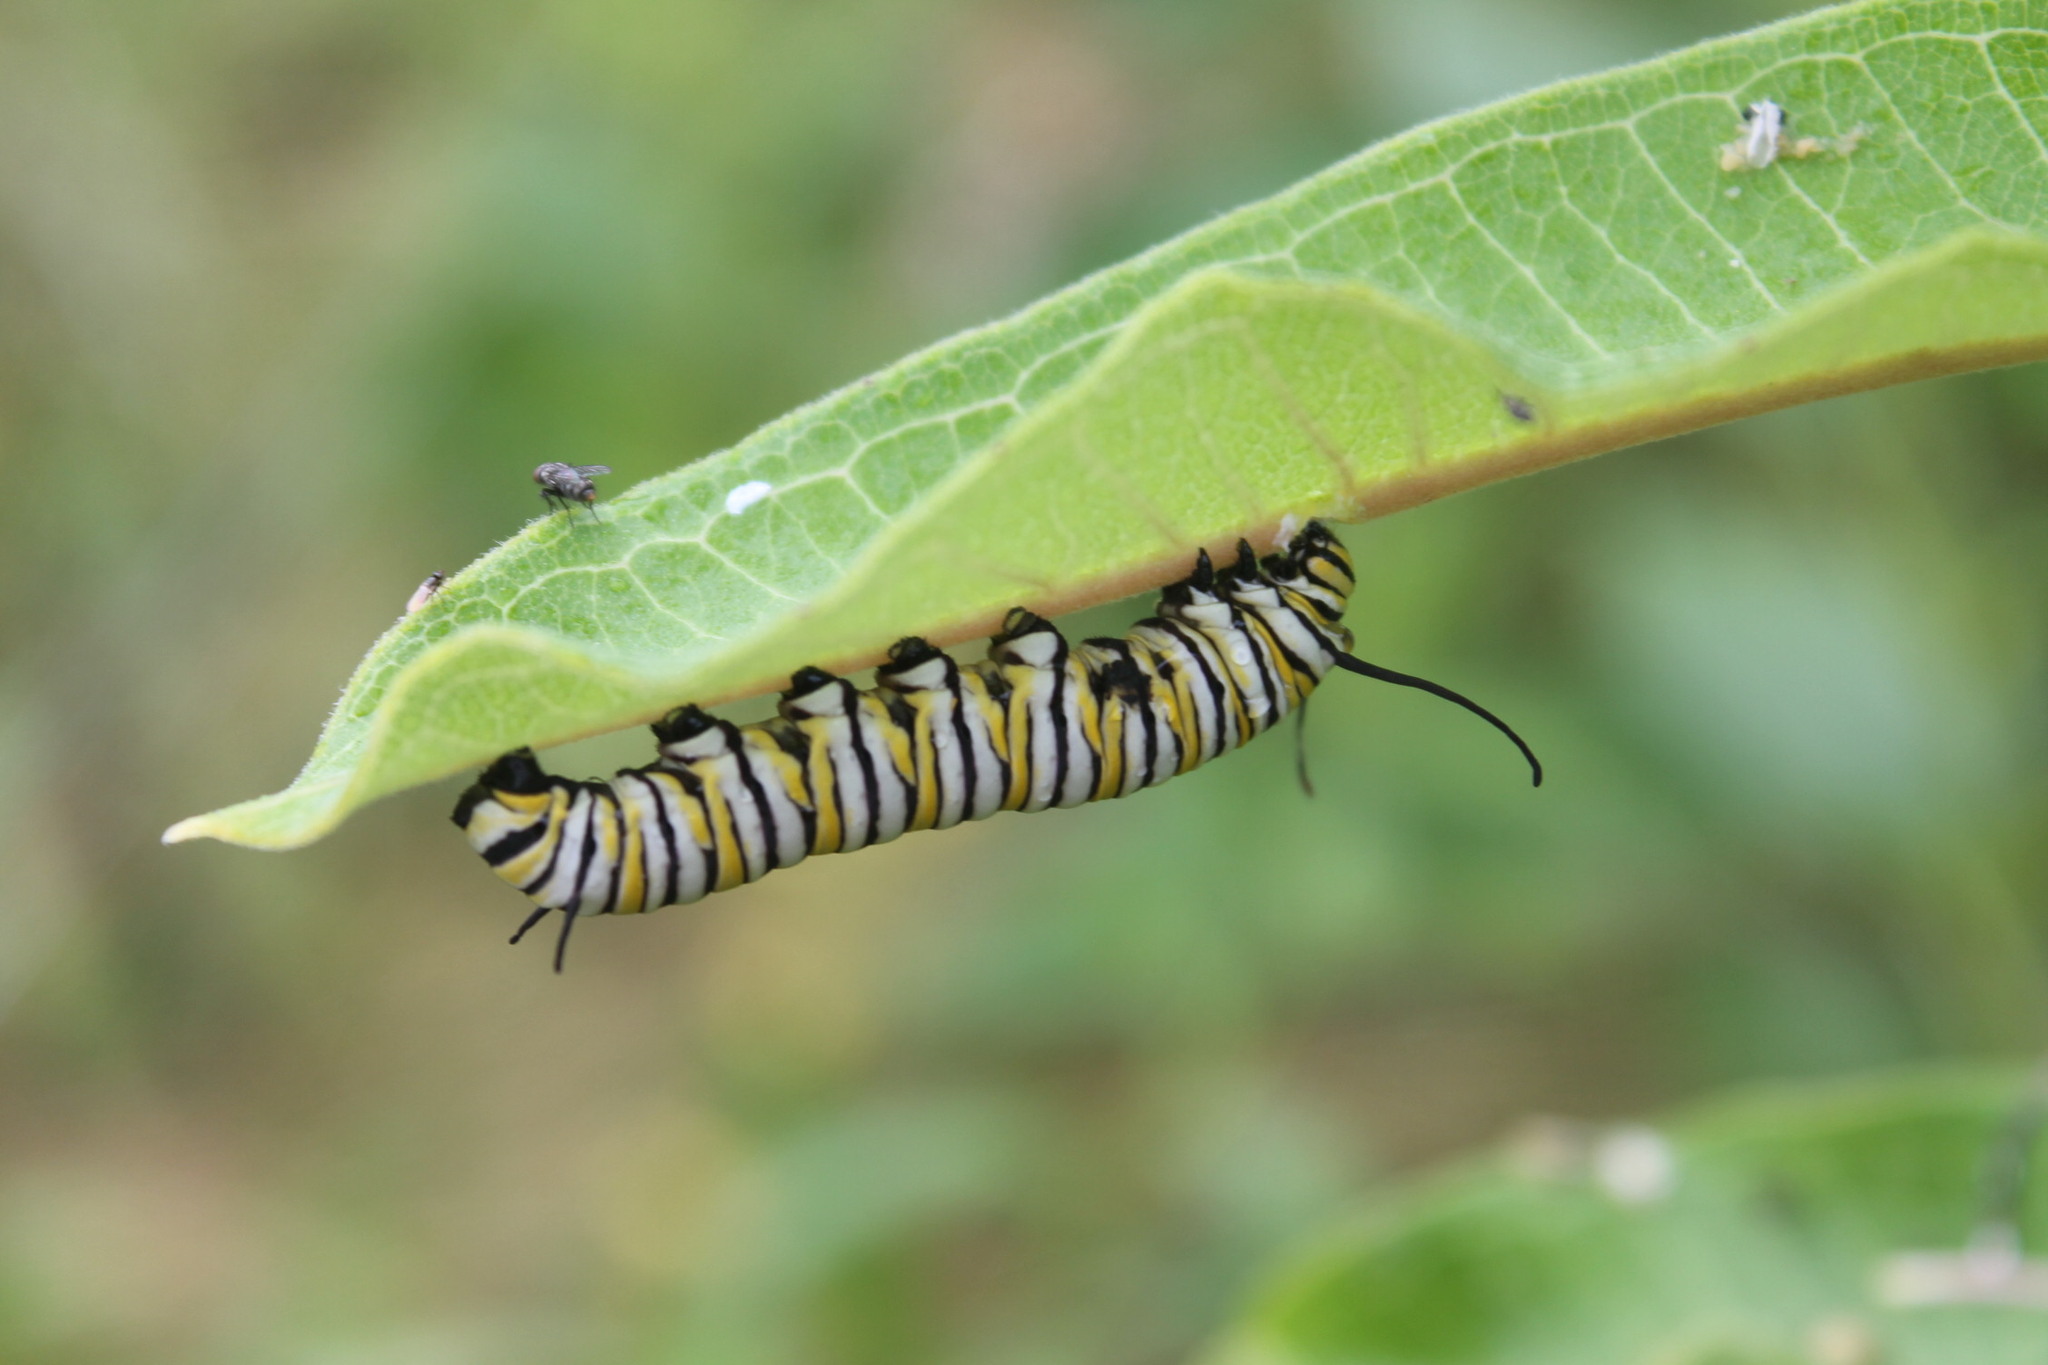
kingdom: Animalia
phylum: Arthropoda
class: Insecta
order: Lepidoptera
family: Nymphalidae
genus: Danaus
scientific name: Danaus plexippus
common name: Monarch
